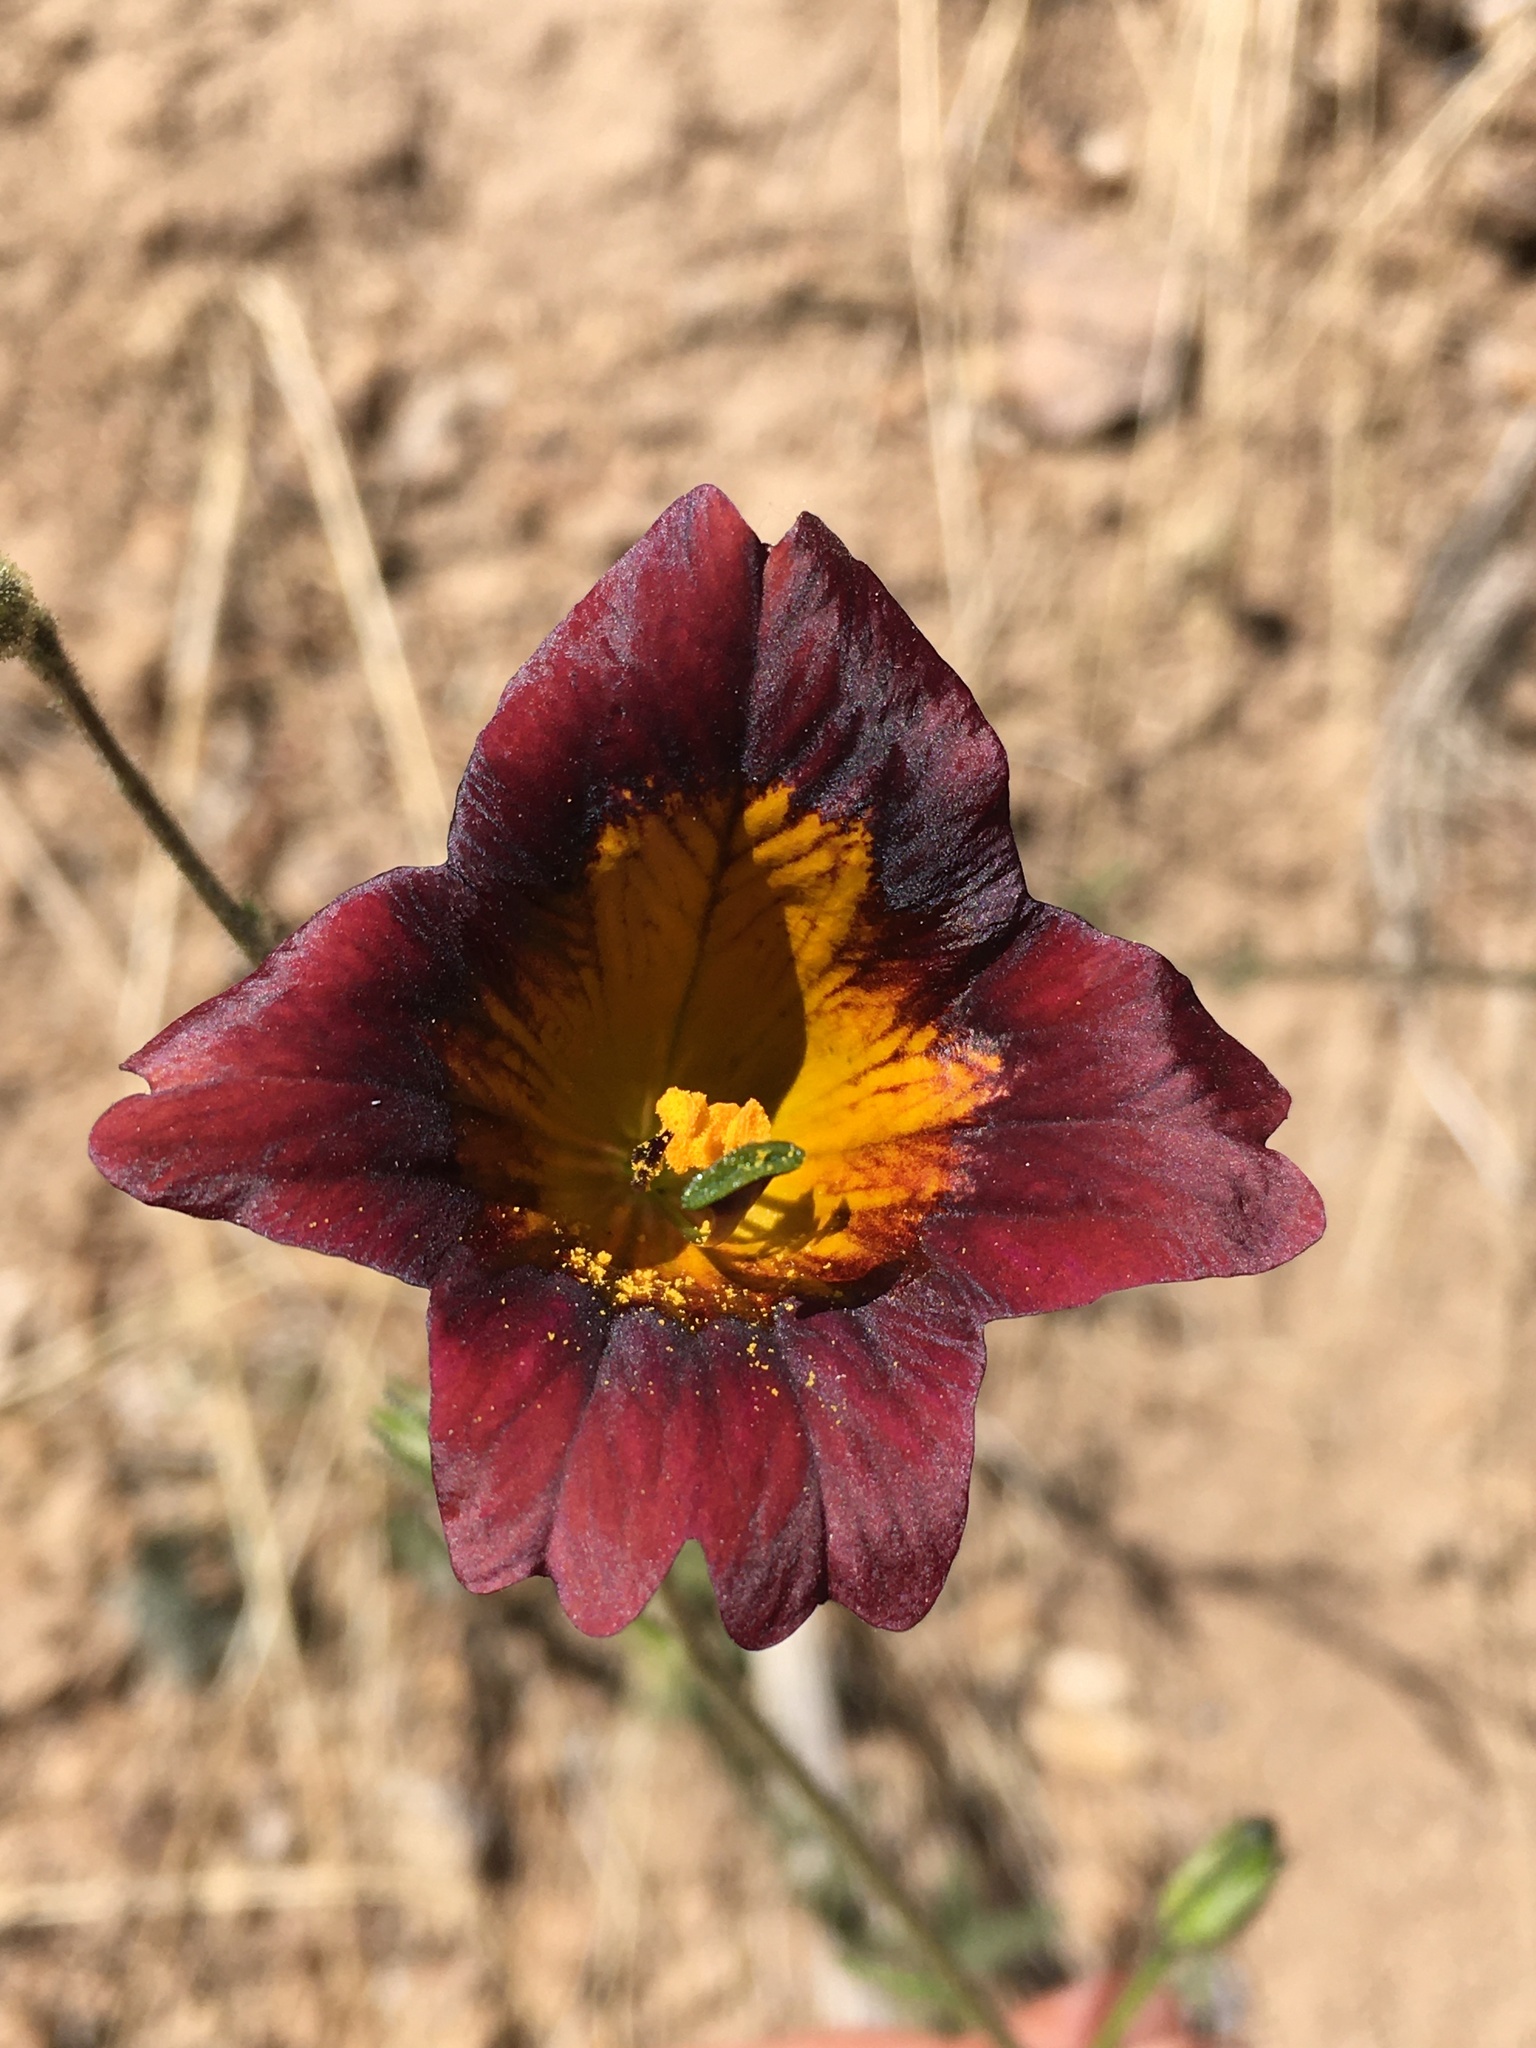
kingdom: Plantae
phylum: Tracheophyta
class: Magnoliopsida
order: Solanales
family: Solanaceae
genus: Salpiglossis
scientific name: Salpiglossis sinuata
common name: Painted-tongue
